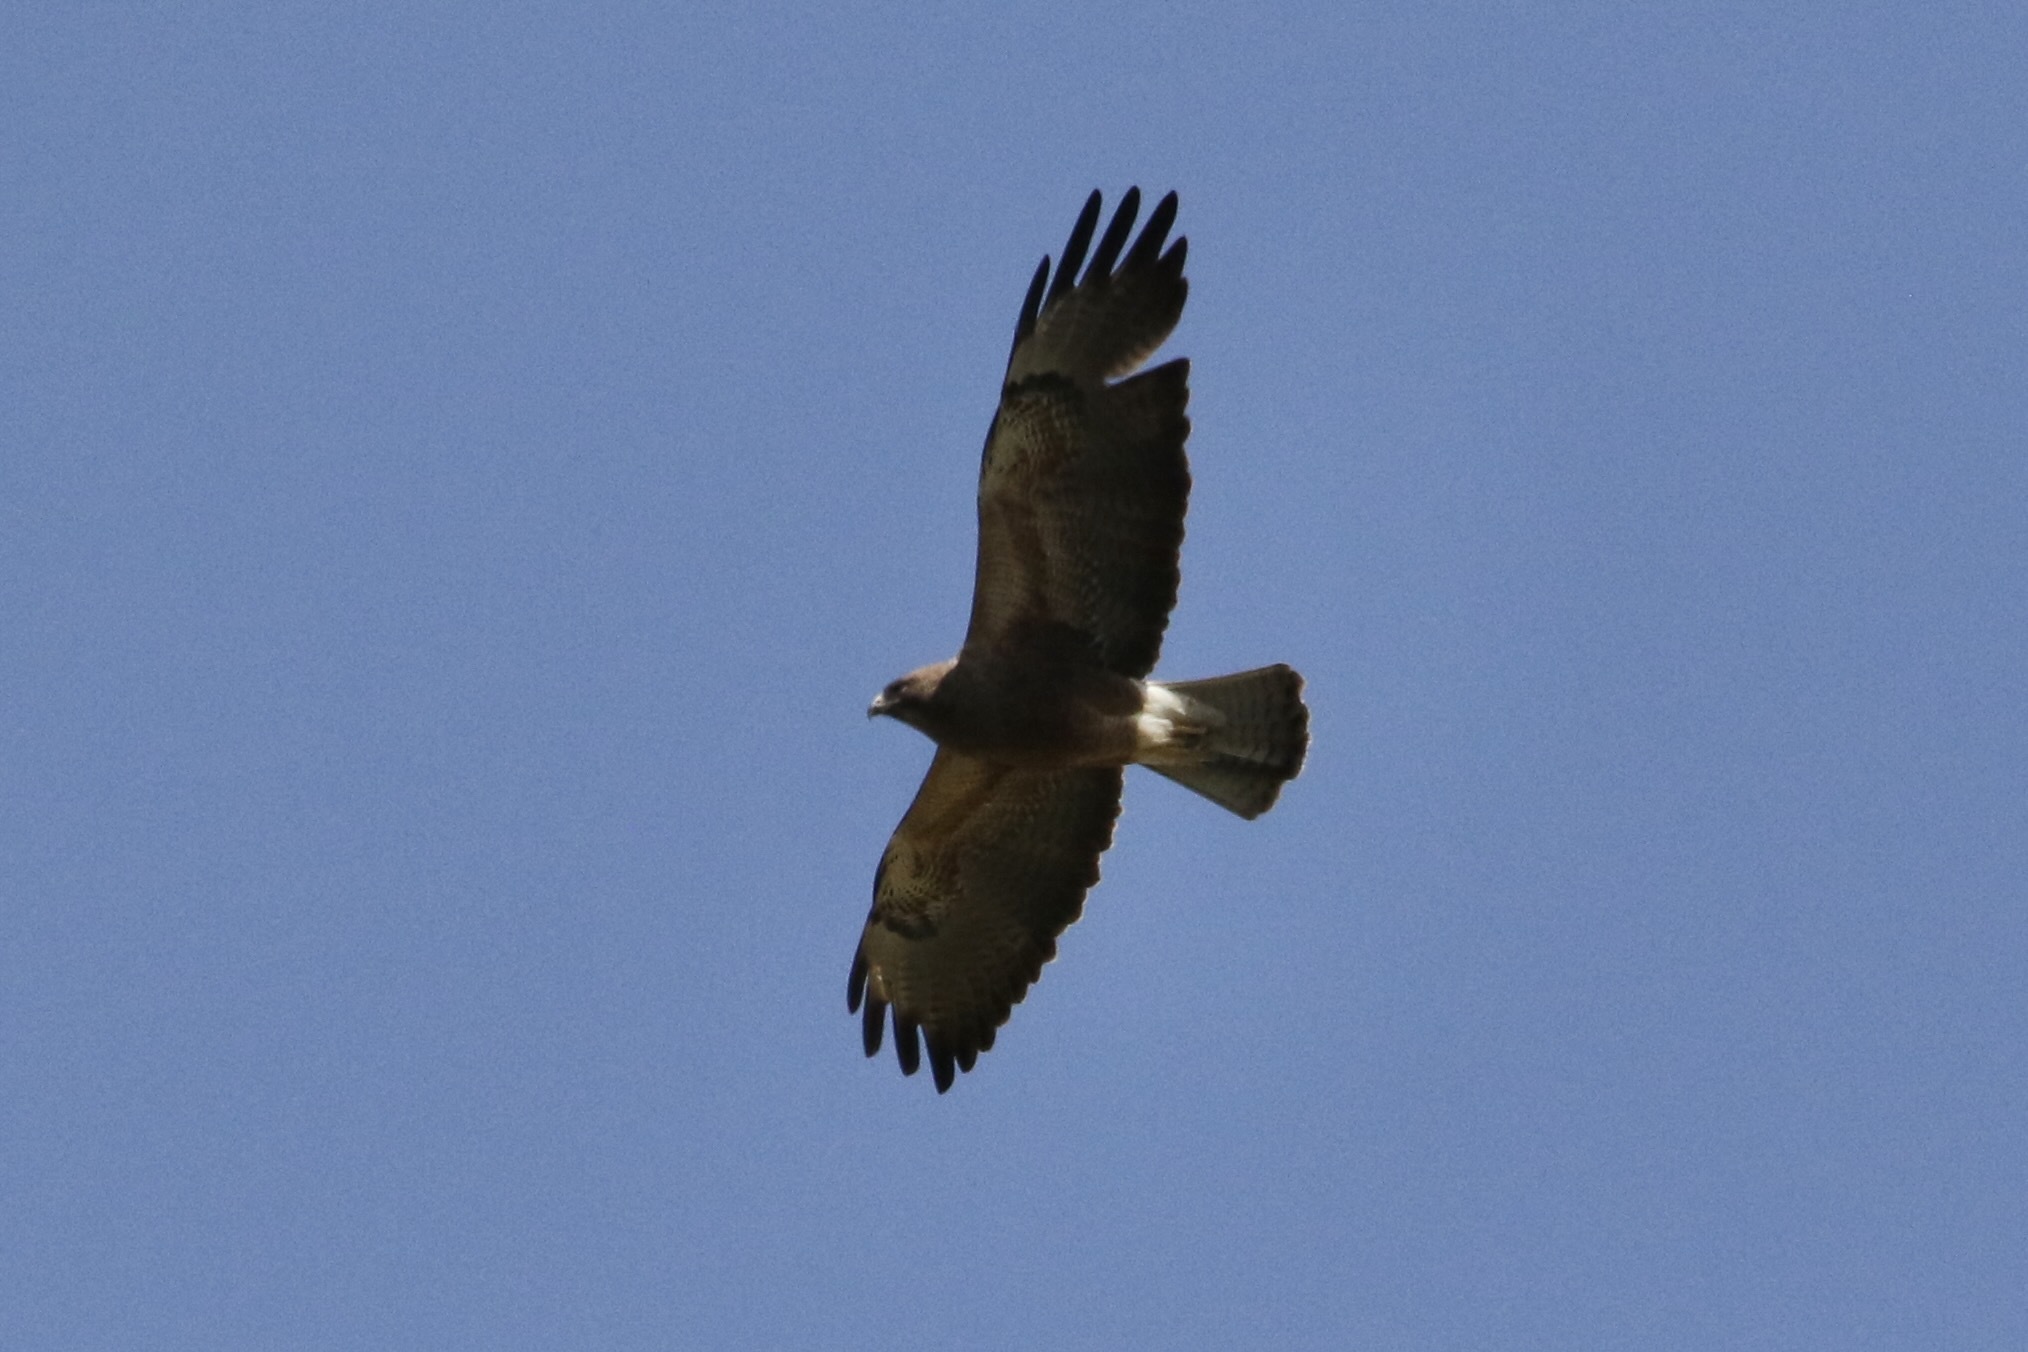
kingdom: Animalia
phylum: Chordata
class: Aves
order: Accipitriformes
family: Accipitridae
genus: Buteo
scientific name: Buteo swainsoni
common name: Swainson's hawk
